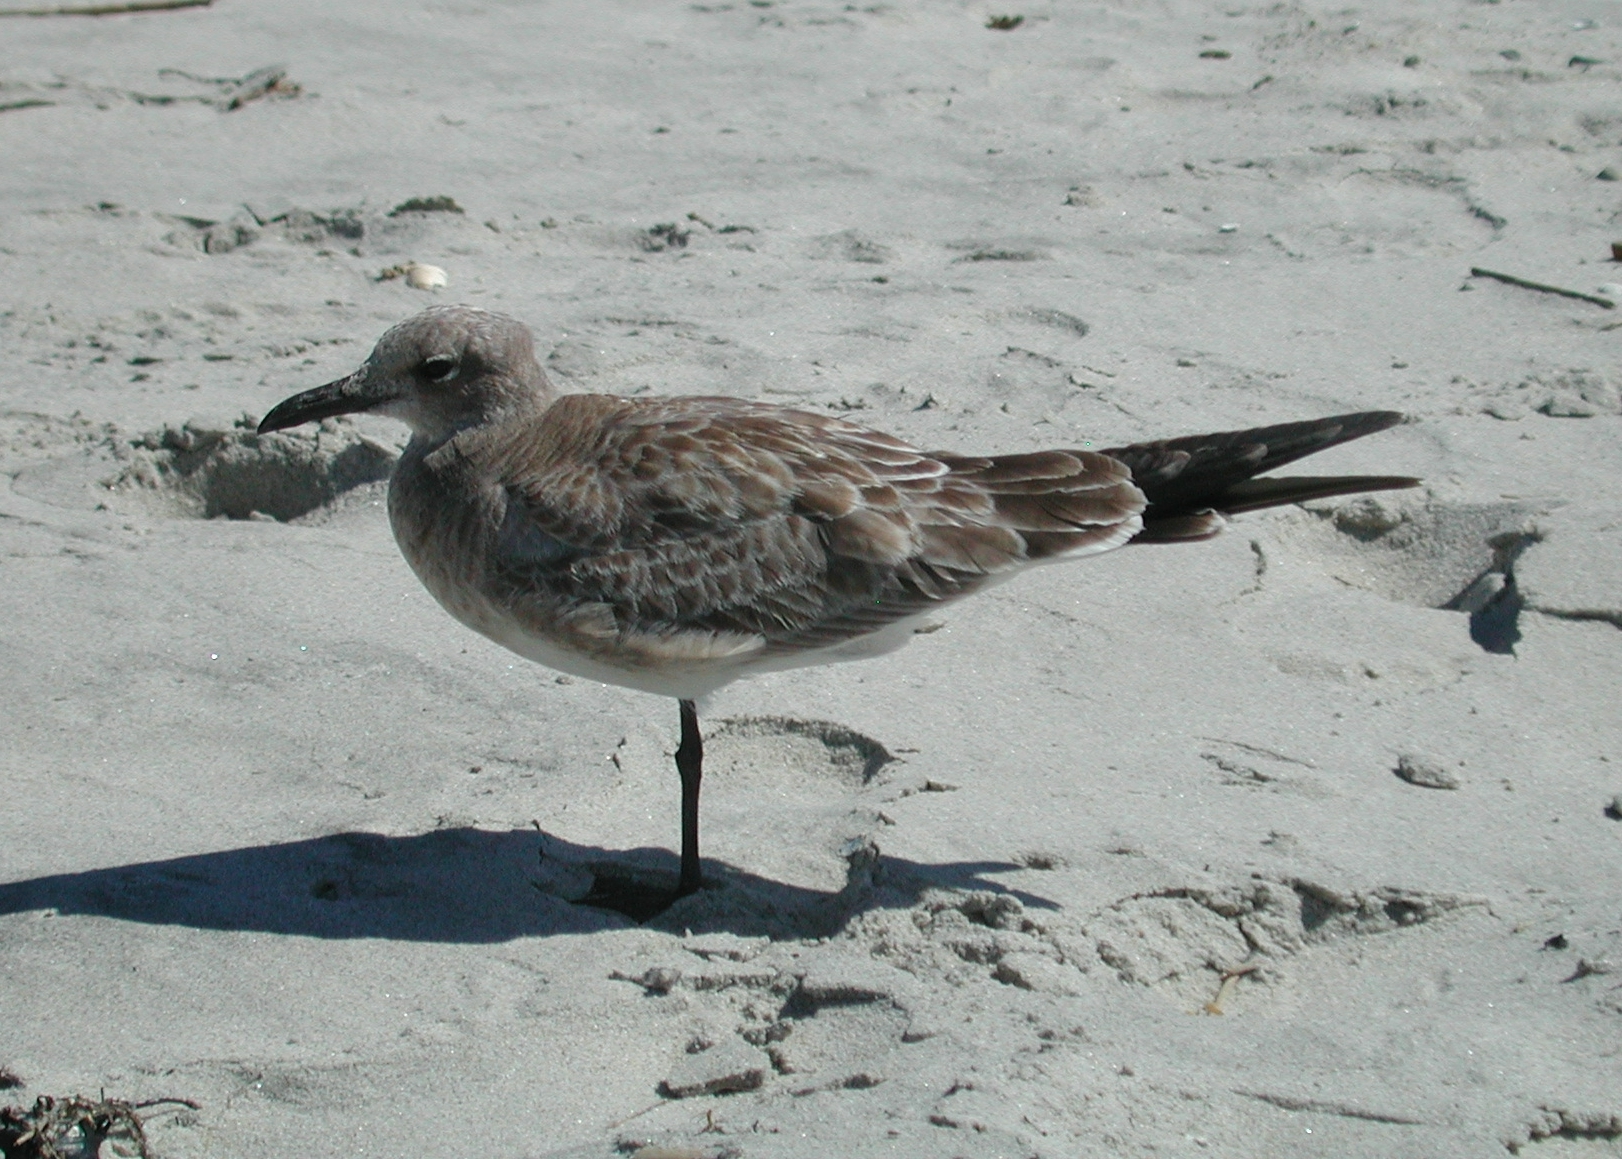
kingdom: Animalia
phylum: Chordata
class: Aves
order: Charadriiformes
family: Laridae
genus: Leucophaeus
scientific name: Leucophaeus atricilla
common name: Laughing gull
